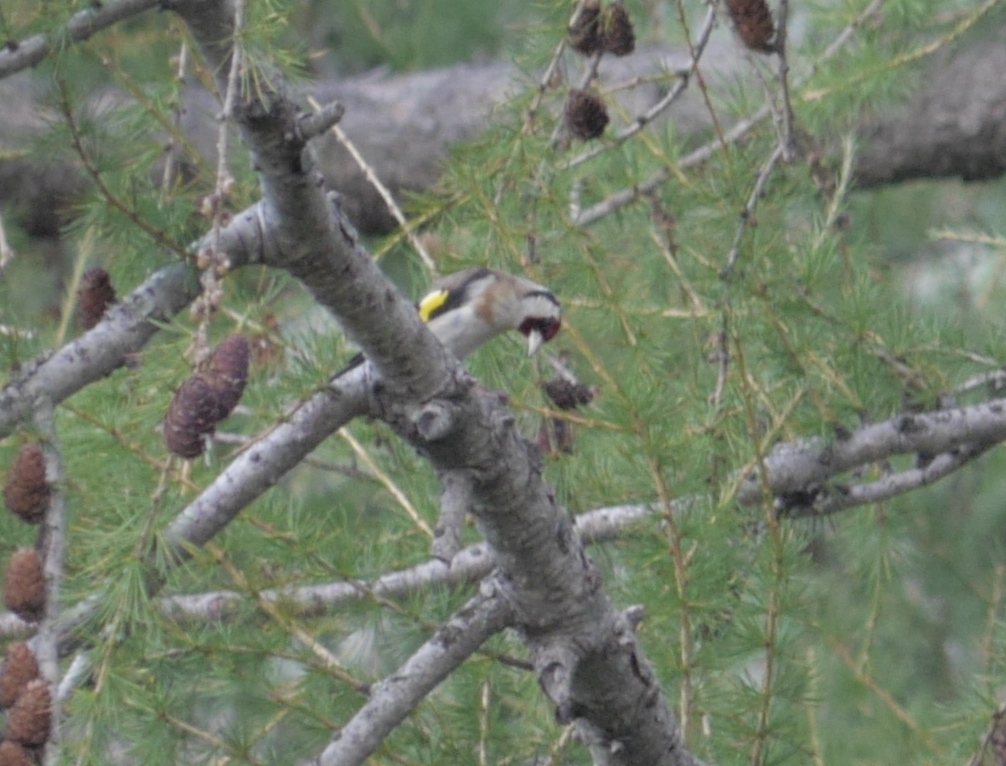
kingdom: Animalia
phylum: Chordata
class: Aves
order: Passeriformes
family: Fringillidae
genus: Carduelis
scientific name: Carduelis carduelis
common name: European goldfinch
